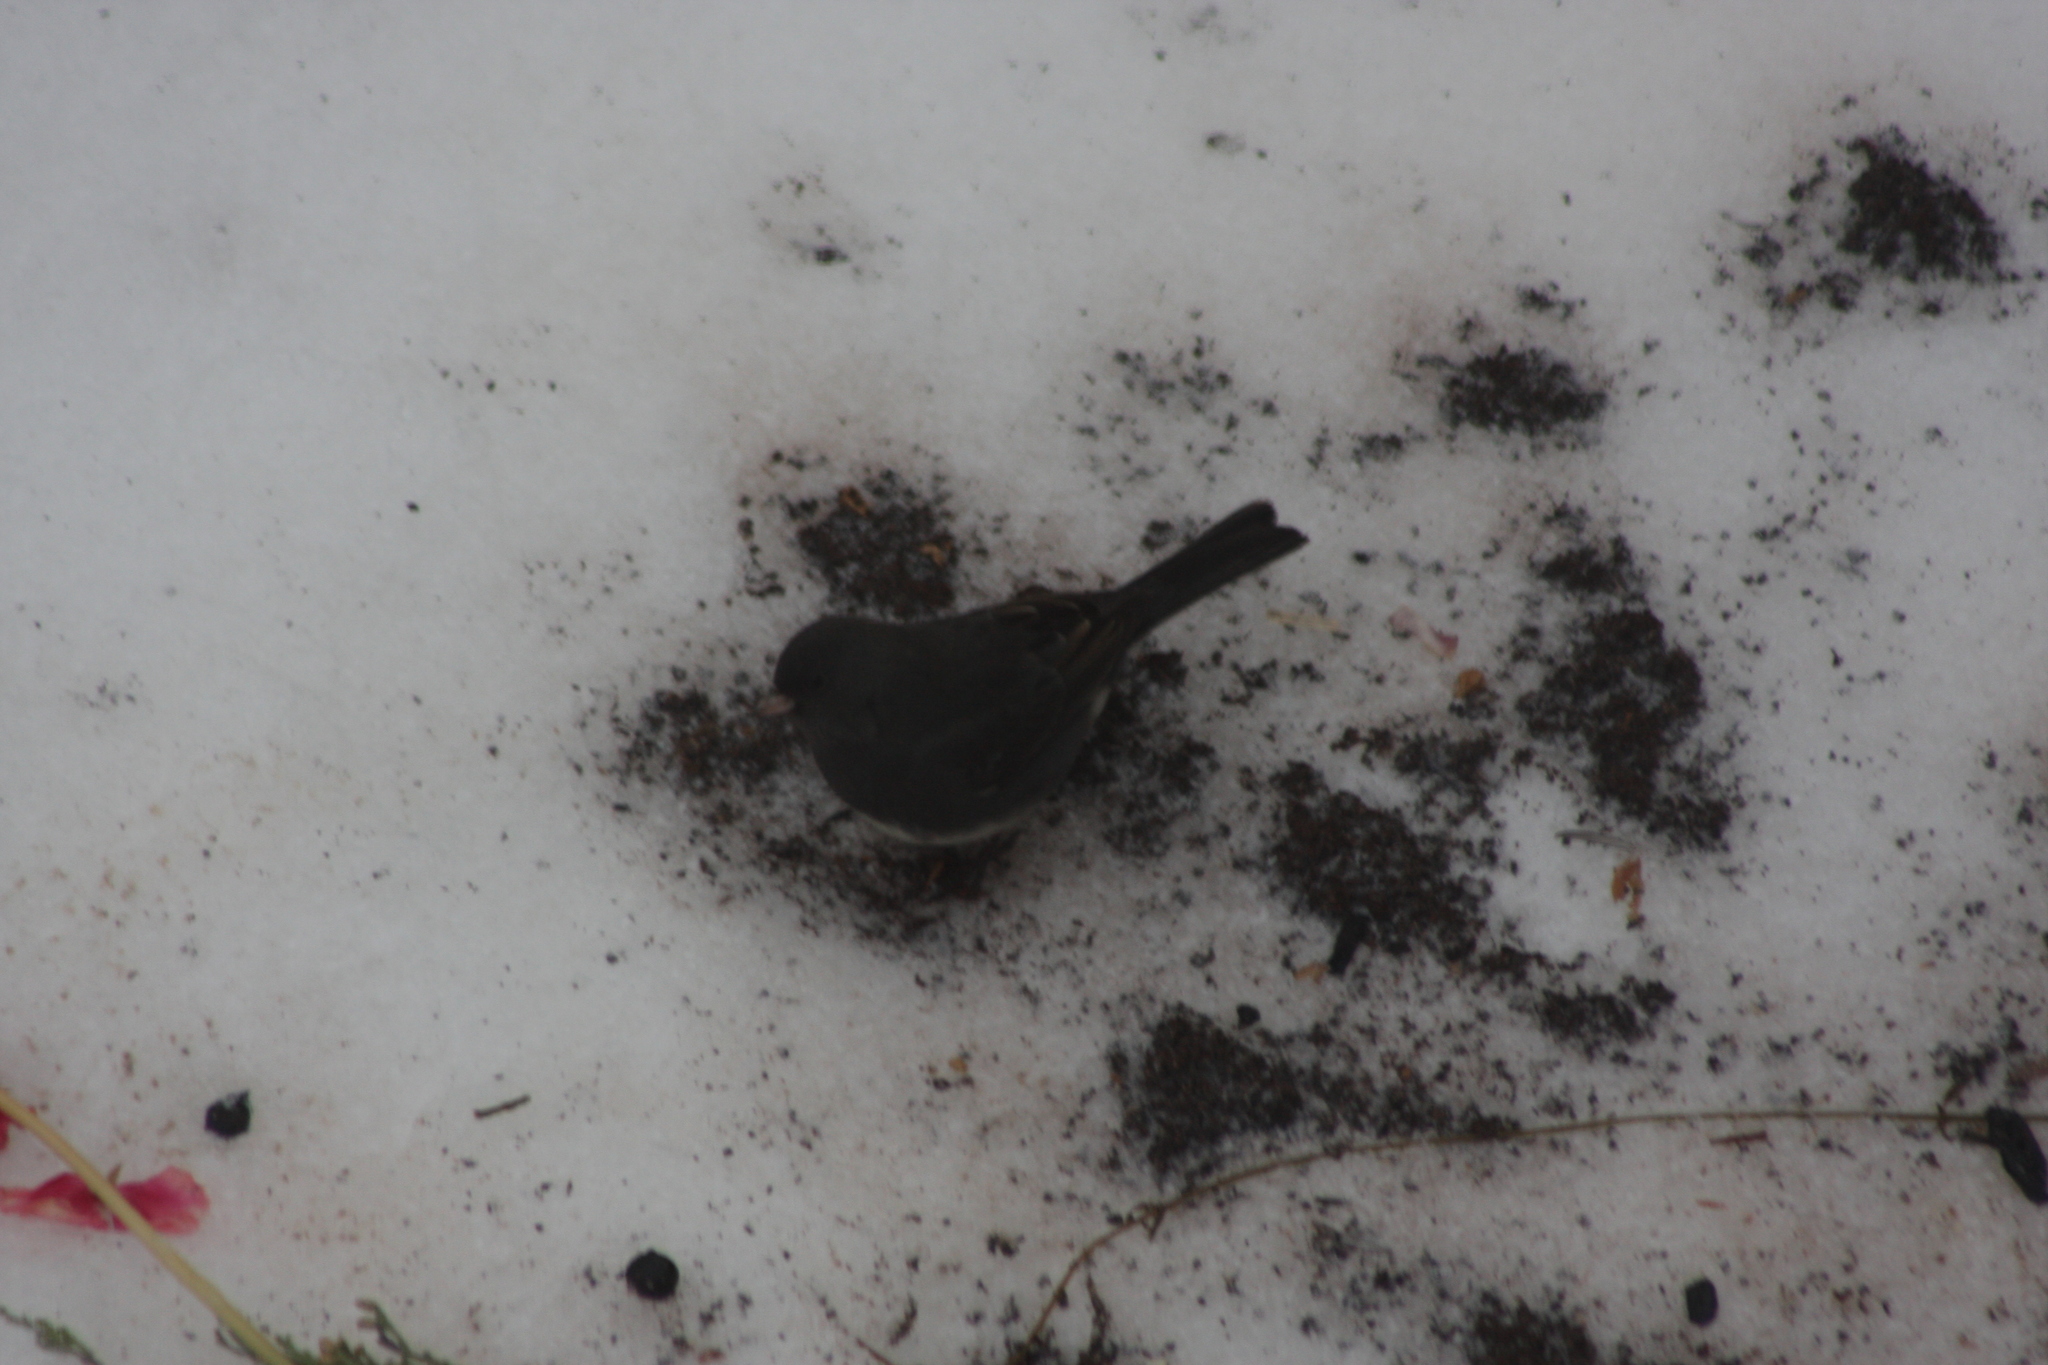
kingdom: Animalia
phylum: Chordata
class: Aves
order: Passeriformes
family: Passerellidae
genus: Junco
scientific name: Junco hyemalis
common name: Dark-eyed junco
